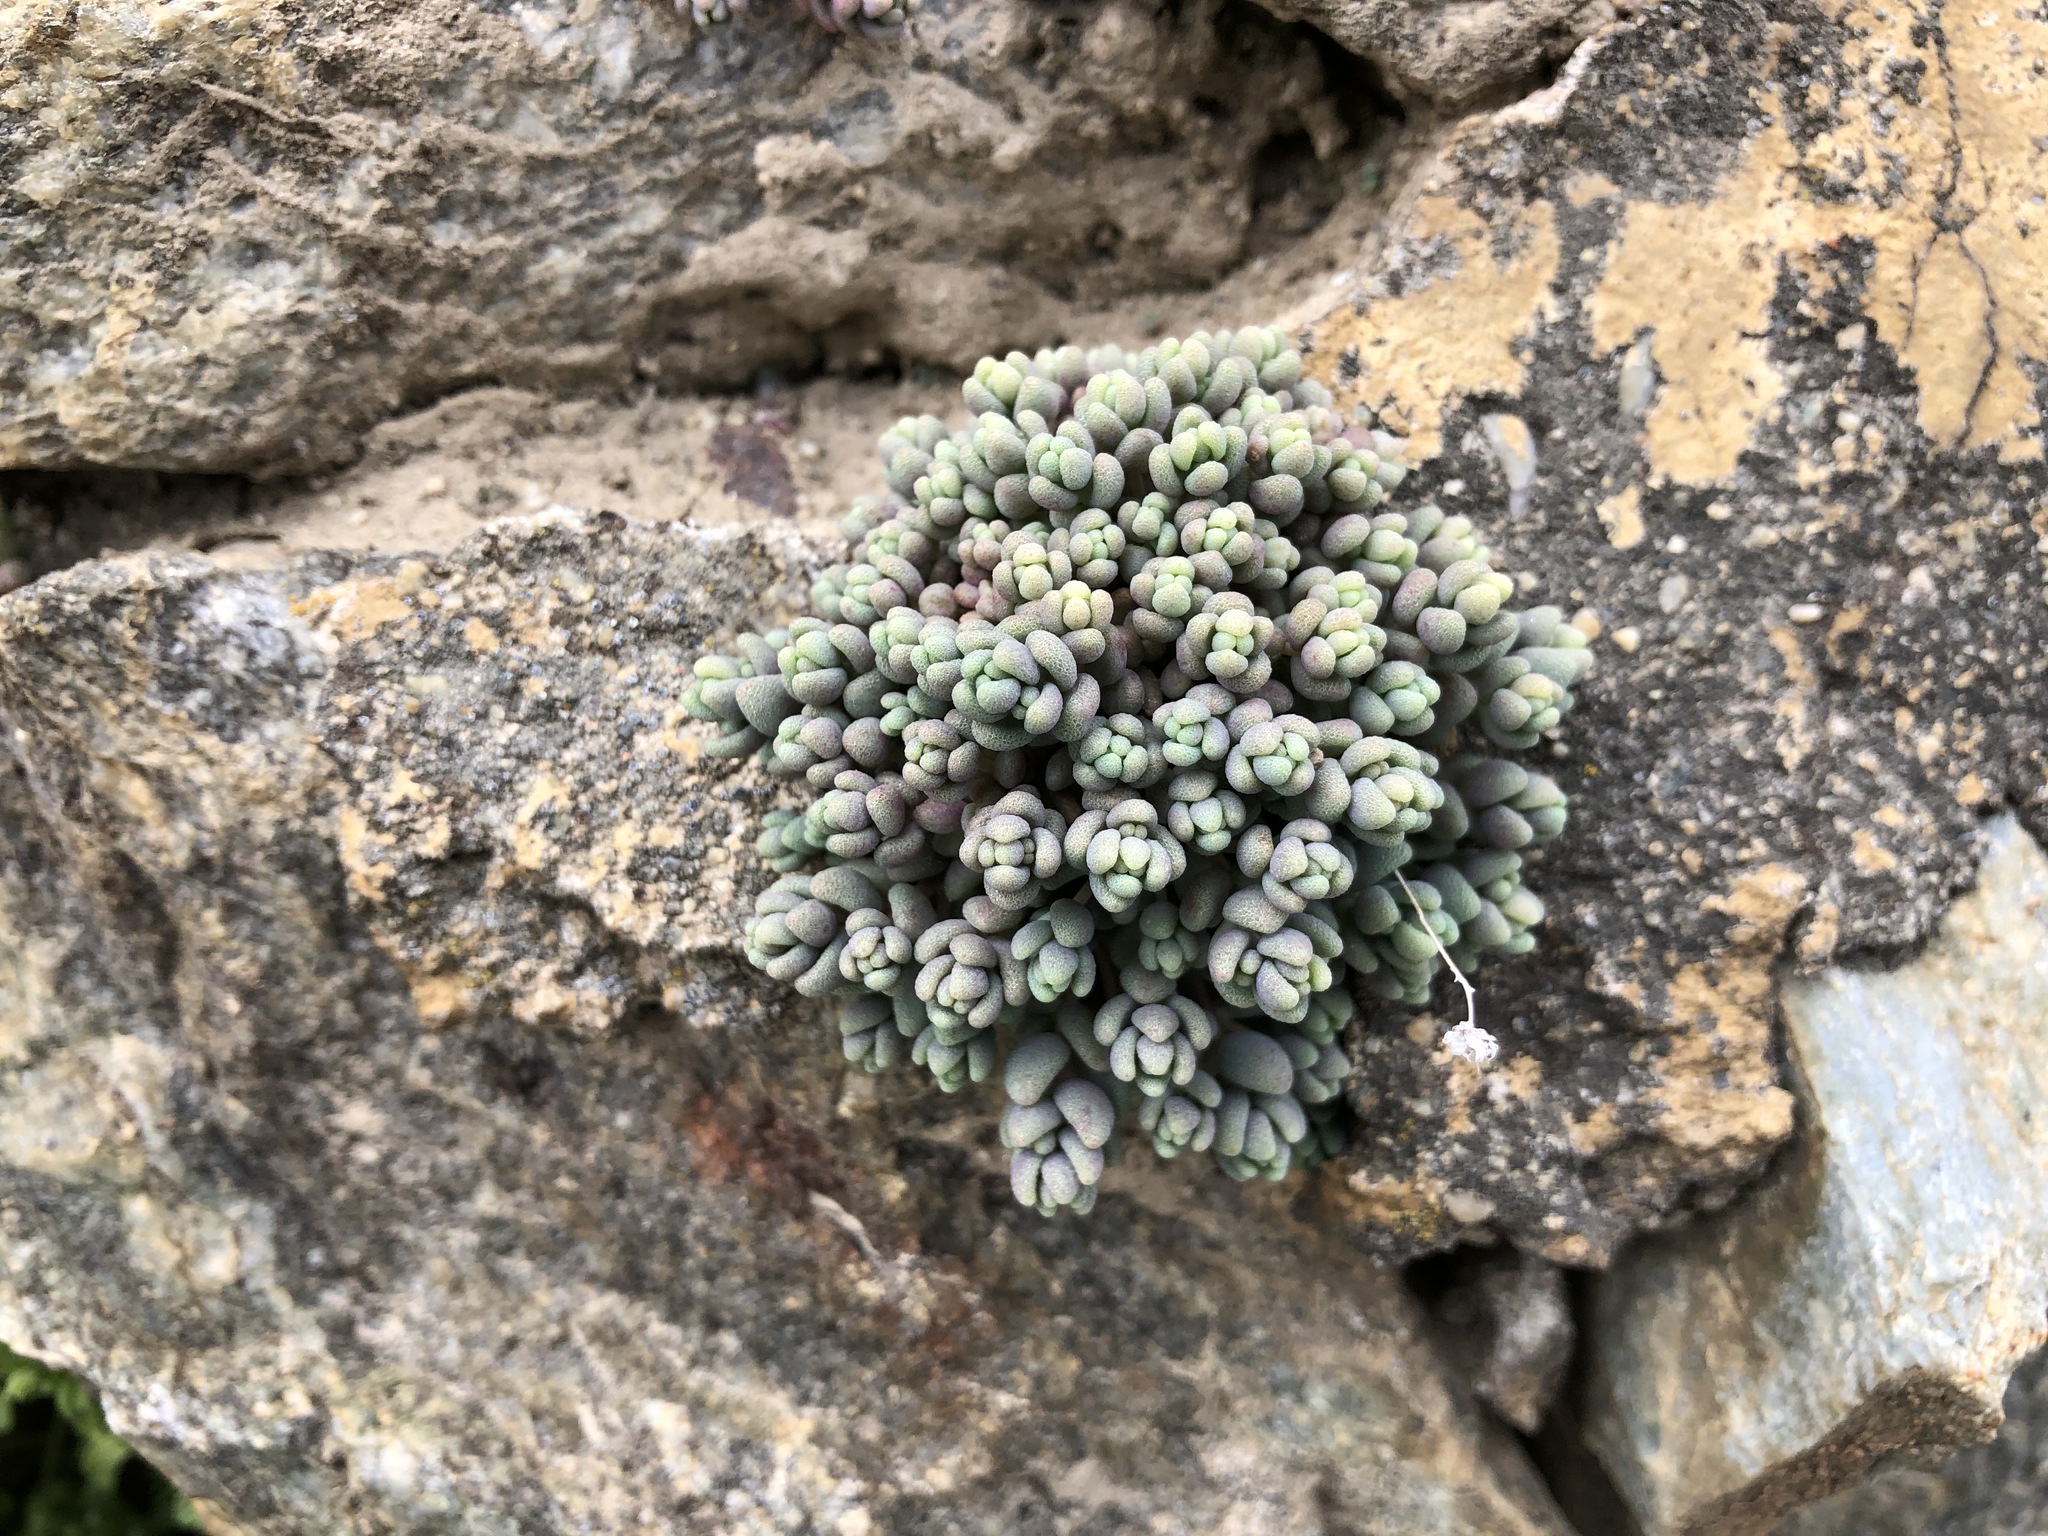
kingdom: Plantae
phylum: Tracheophyta
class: Magnoliopsida
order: Saxifragales
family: Crassulaceae
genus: Sedum
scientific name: Sedum dasyphyllum
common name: Thick-leaf stonecrop
